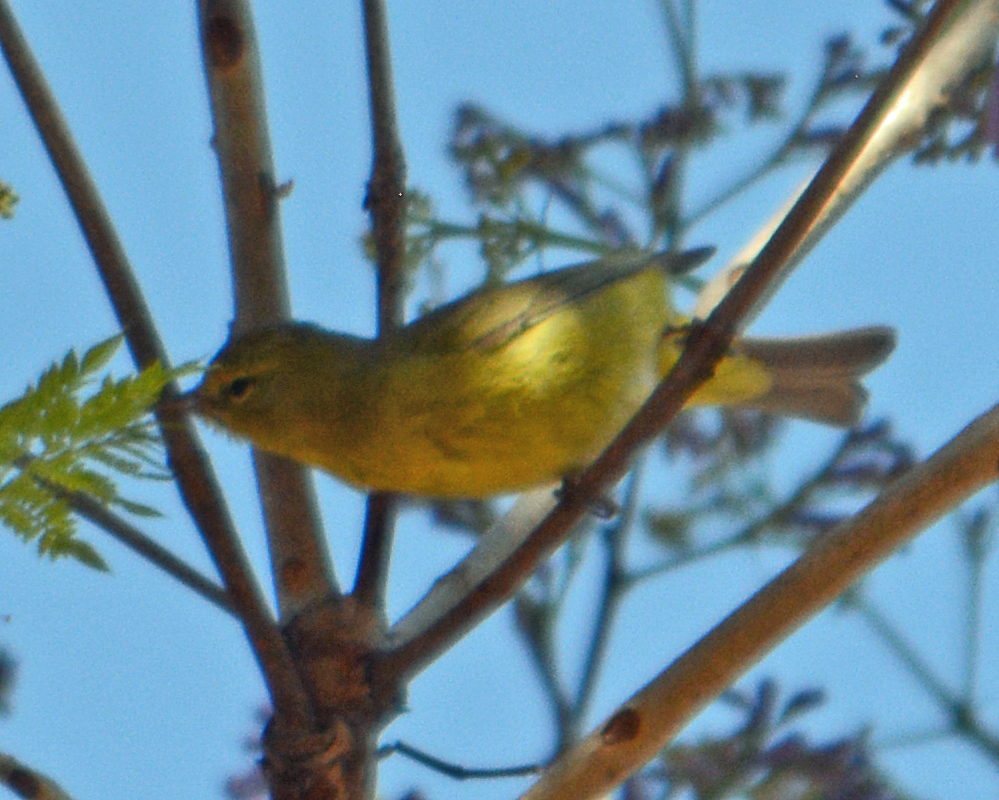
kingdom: Animalia
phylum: Chordata
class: Aves
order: Passeriformes
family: Parulidae
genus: Leiothlypis
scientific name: Leiothlypis celata
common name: Orange-crowned warbler
